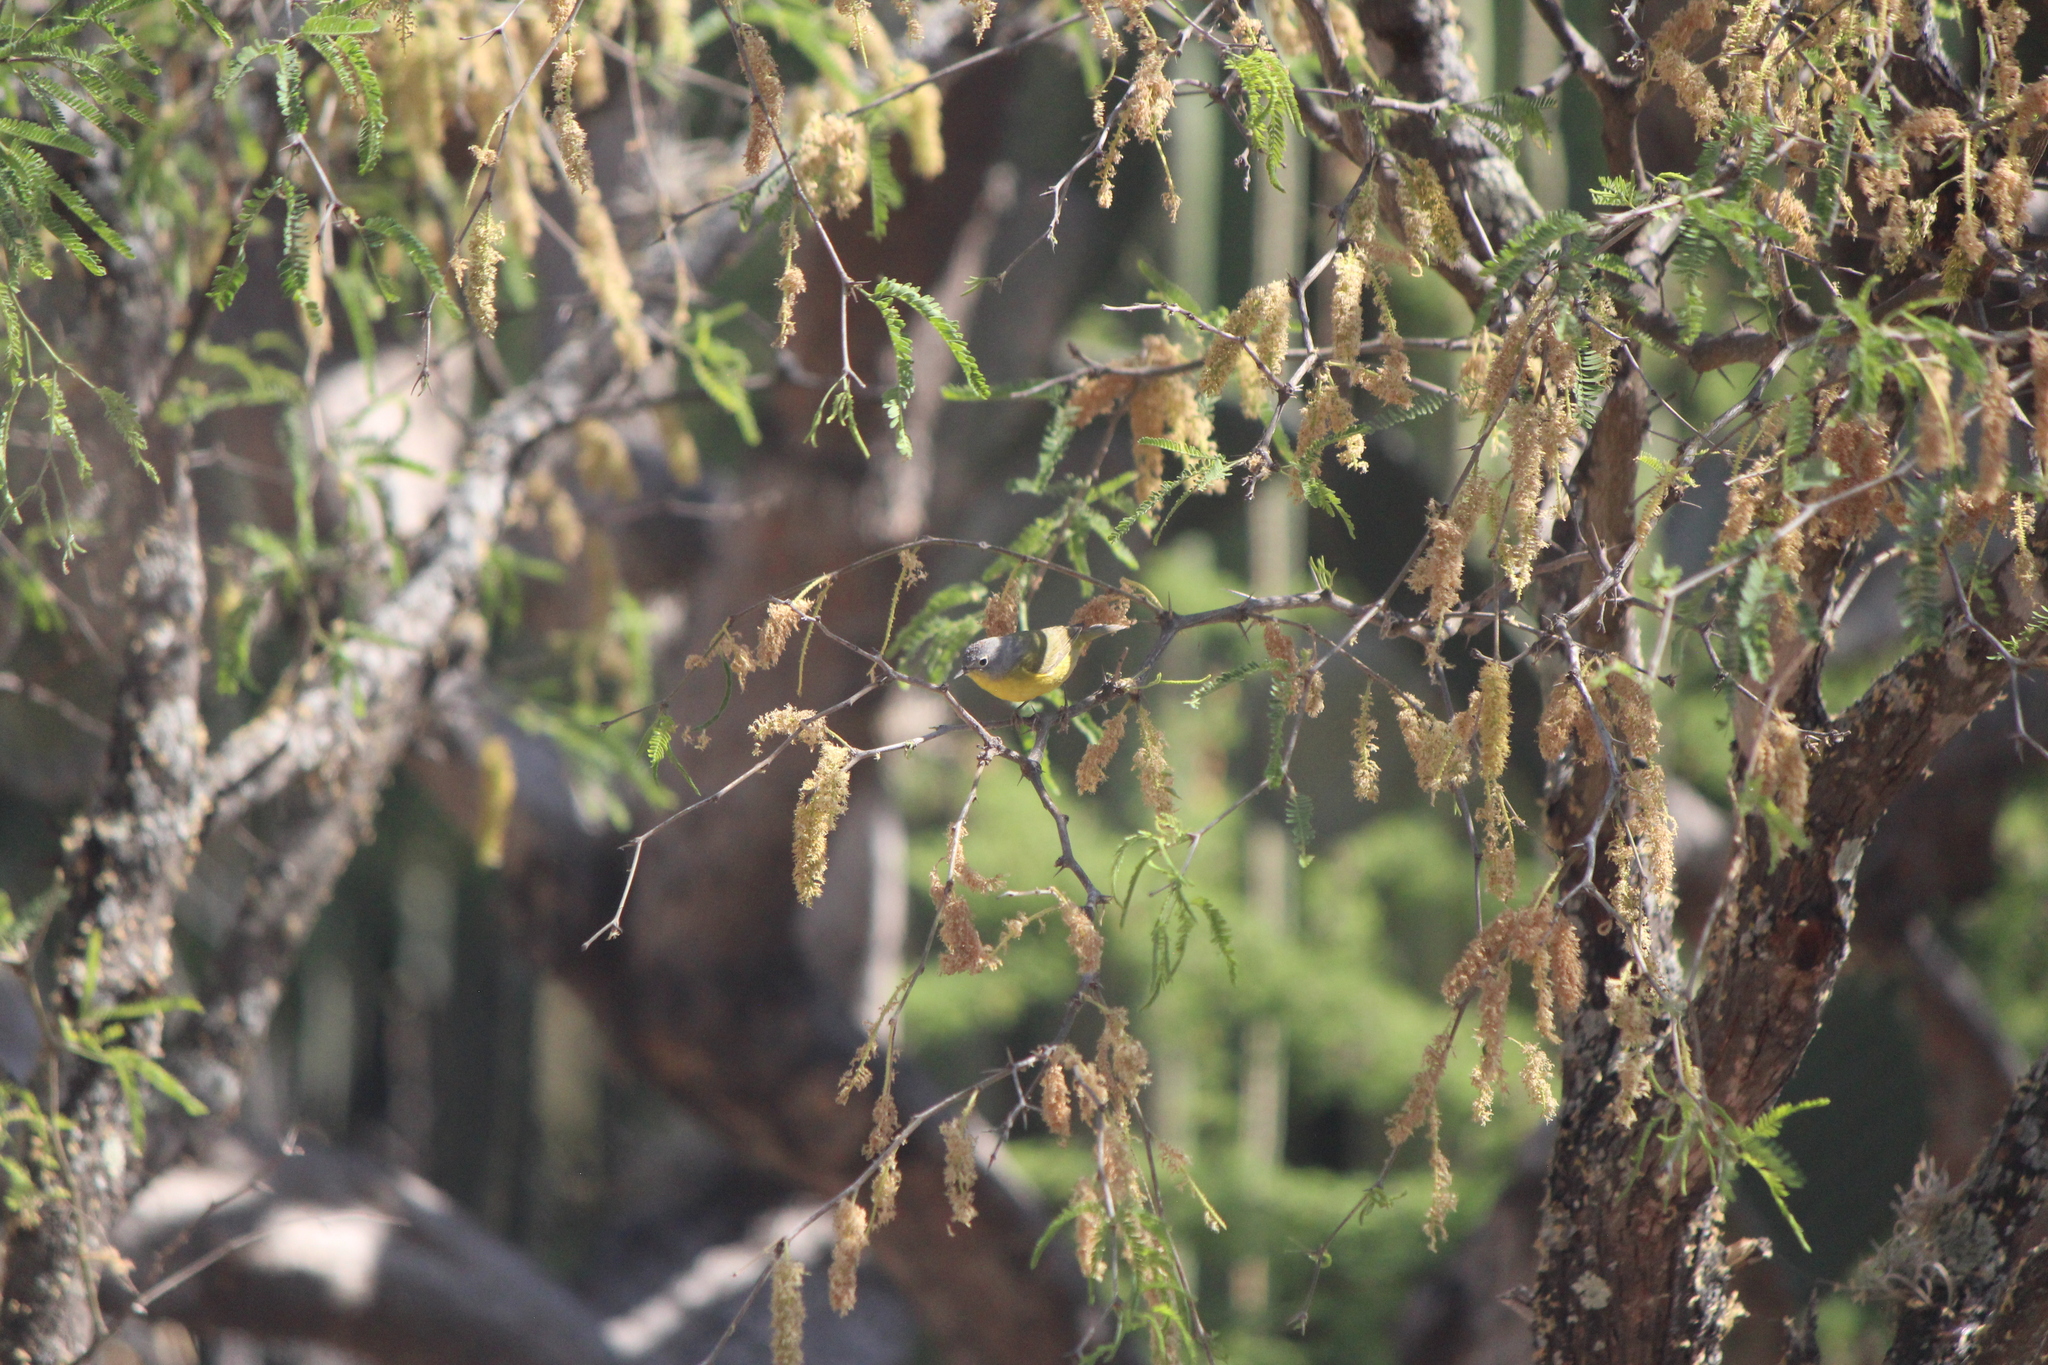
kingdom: Animalia
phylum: Chordata
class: Aves
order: Passeriformes
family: Parulidae
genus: Leiothlypis
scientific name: Leiothlypis ruficapilla
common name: Nashville warbler
